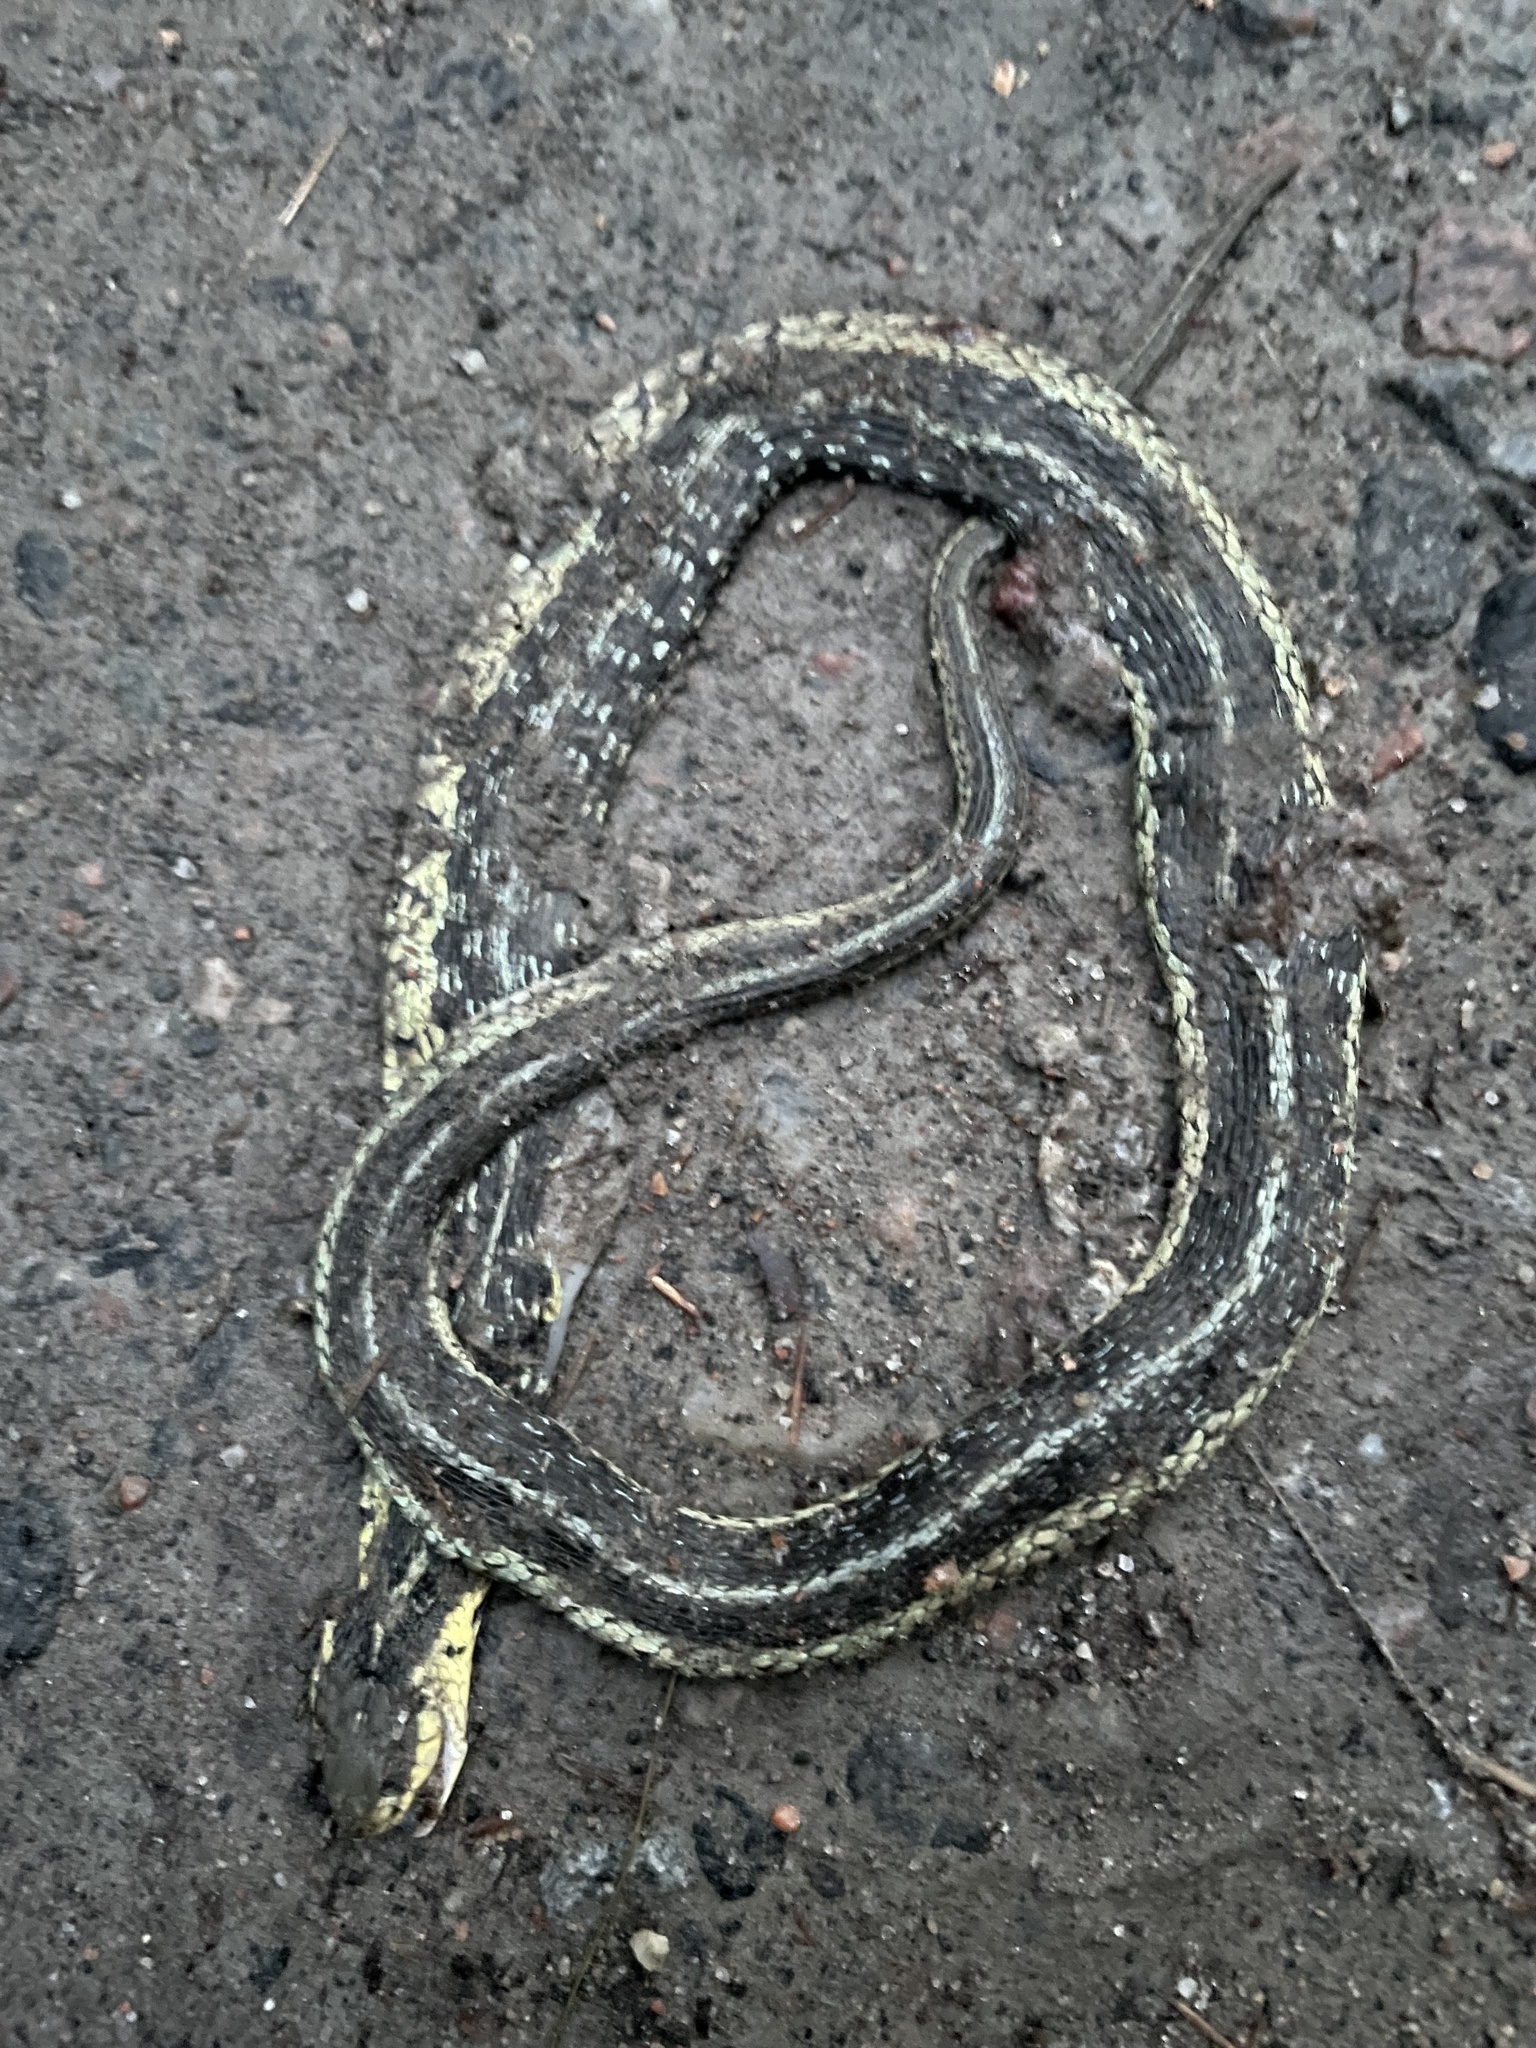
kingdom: Animalia
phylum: Chordata
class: Squamata
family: Colubridae
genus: Thamnophis
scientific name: Thamnophis sirtalis
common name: Common garter snake
